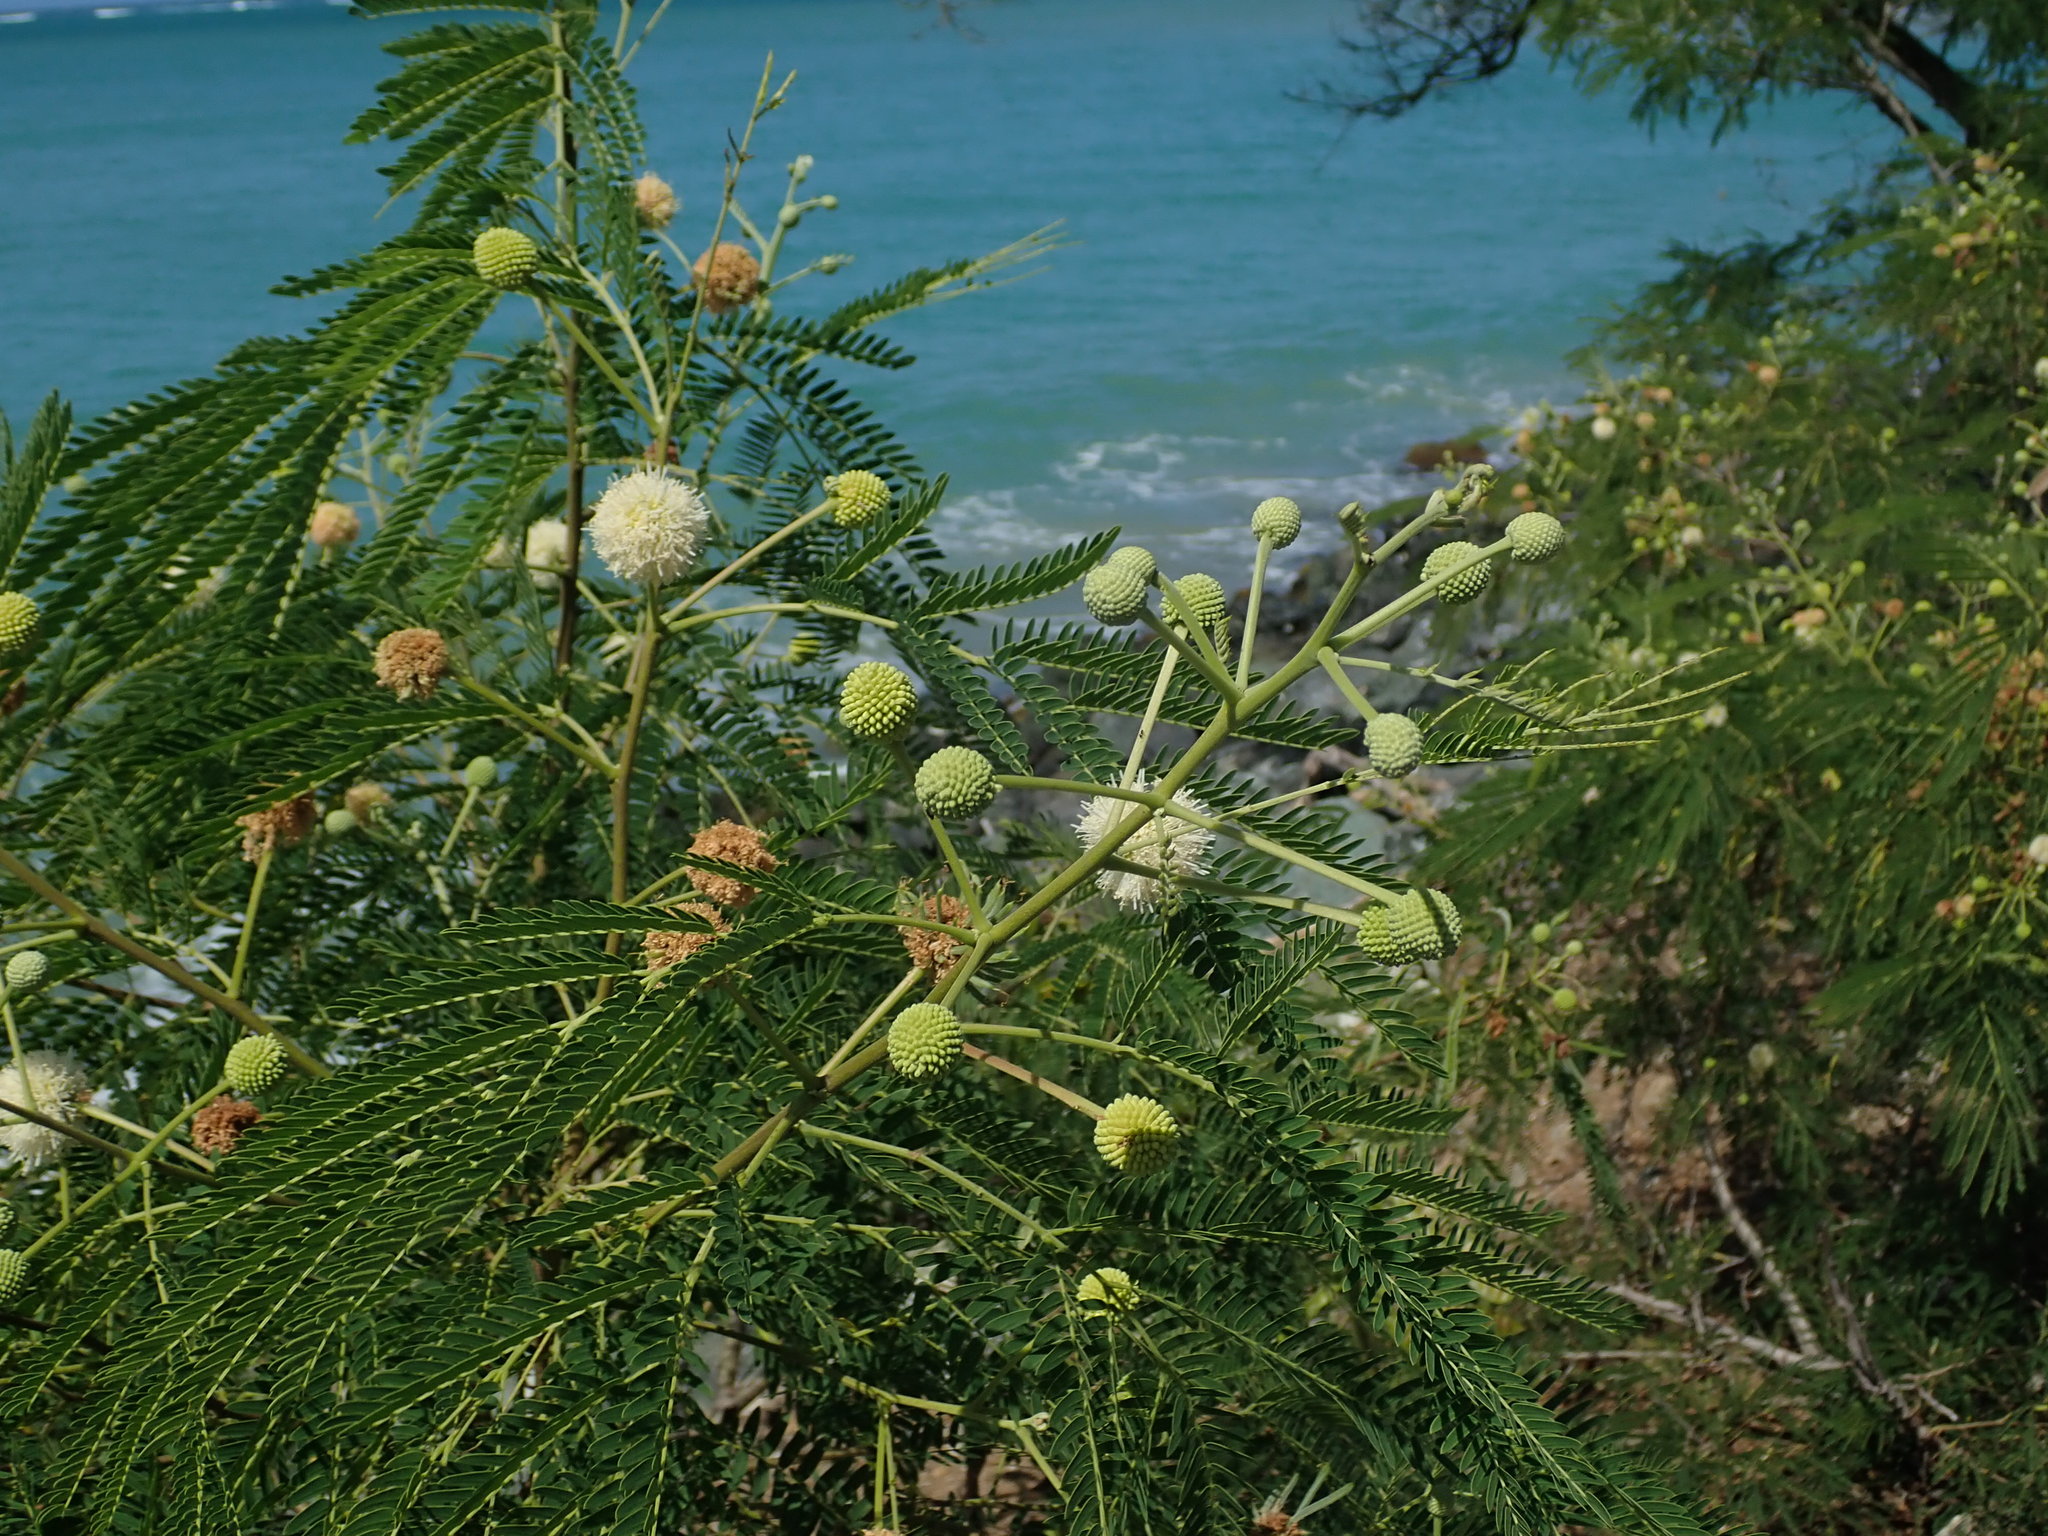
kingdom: Plantae
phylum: Tracheophyta
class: Magnoliopsida
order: Fabales
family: Fabaceae
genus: Leucaena
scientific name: Leucaena leucocephala
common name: White leadtree
